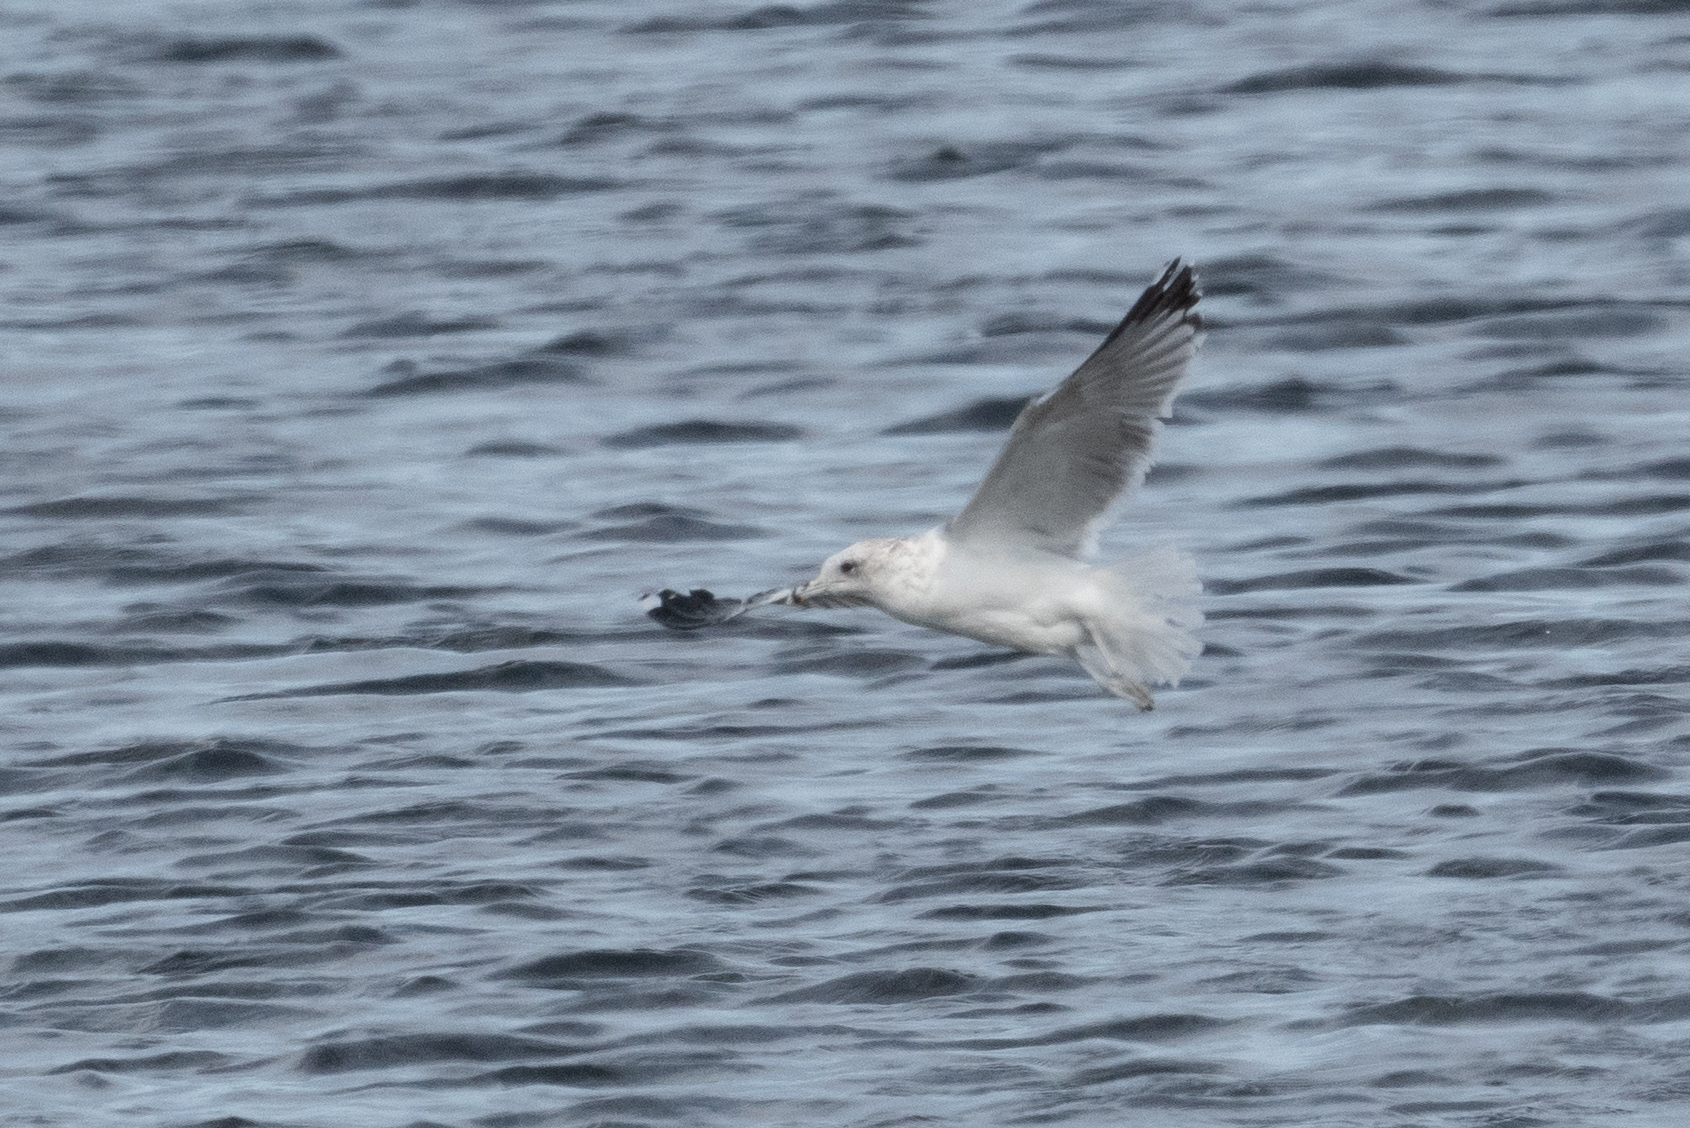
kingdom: Animalia
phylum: Chordata
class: Aves
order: Charadriiformes
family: Laridae
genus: Larus
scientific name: Larus californicus
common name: California gull
